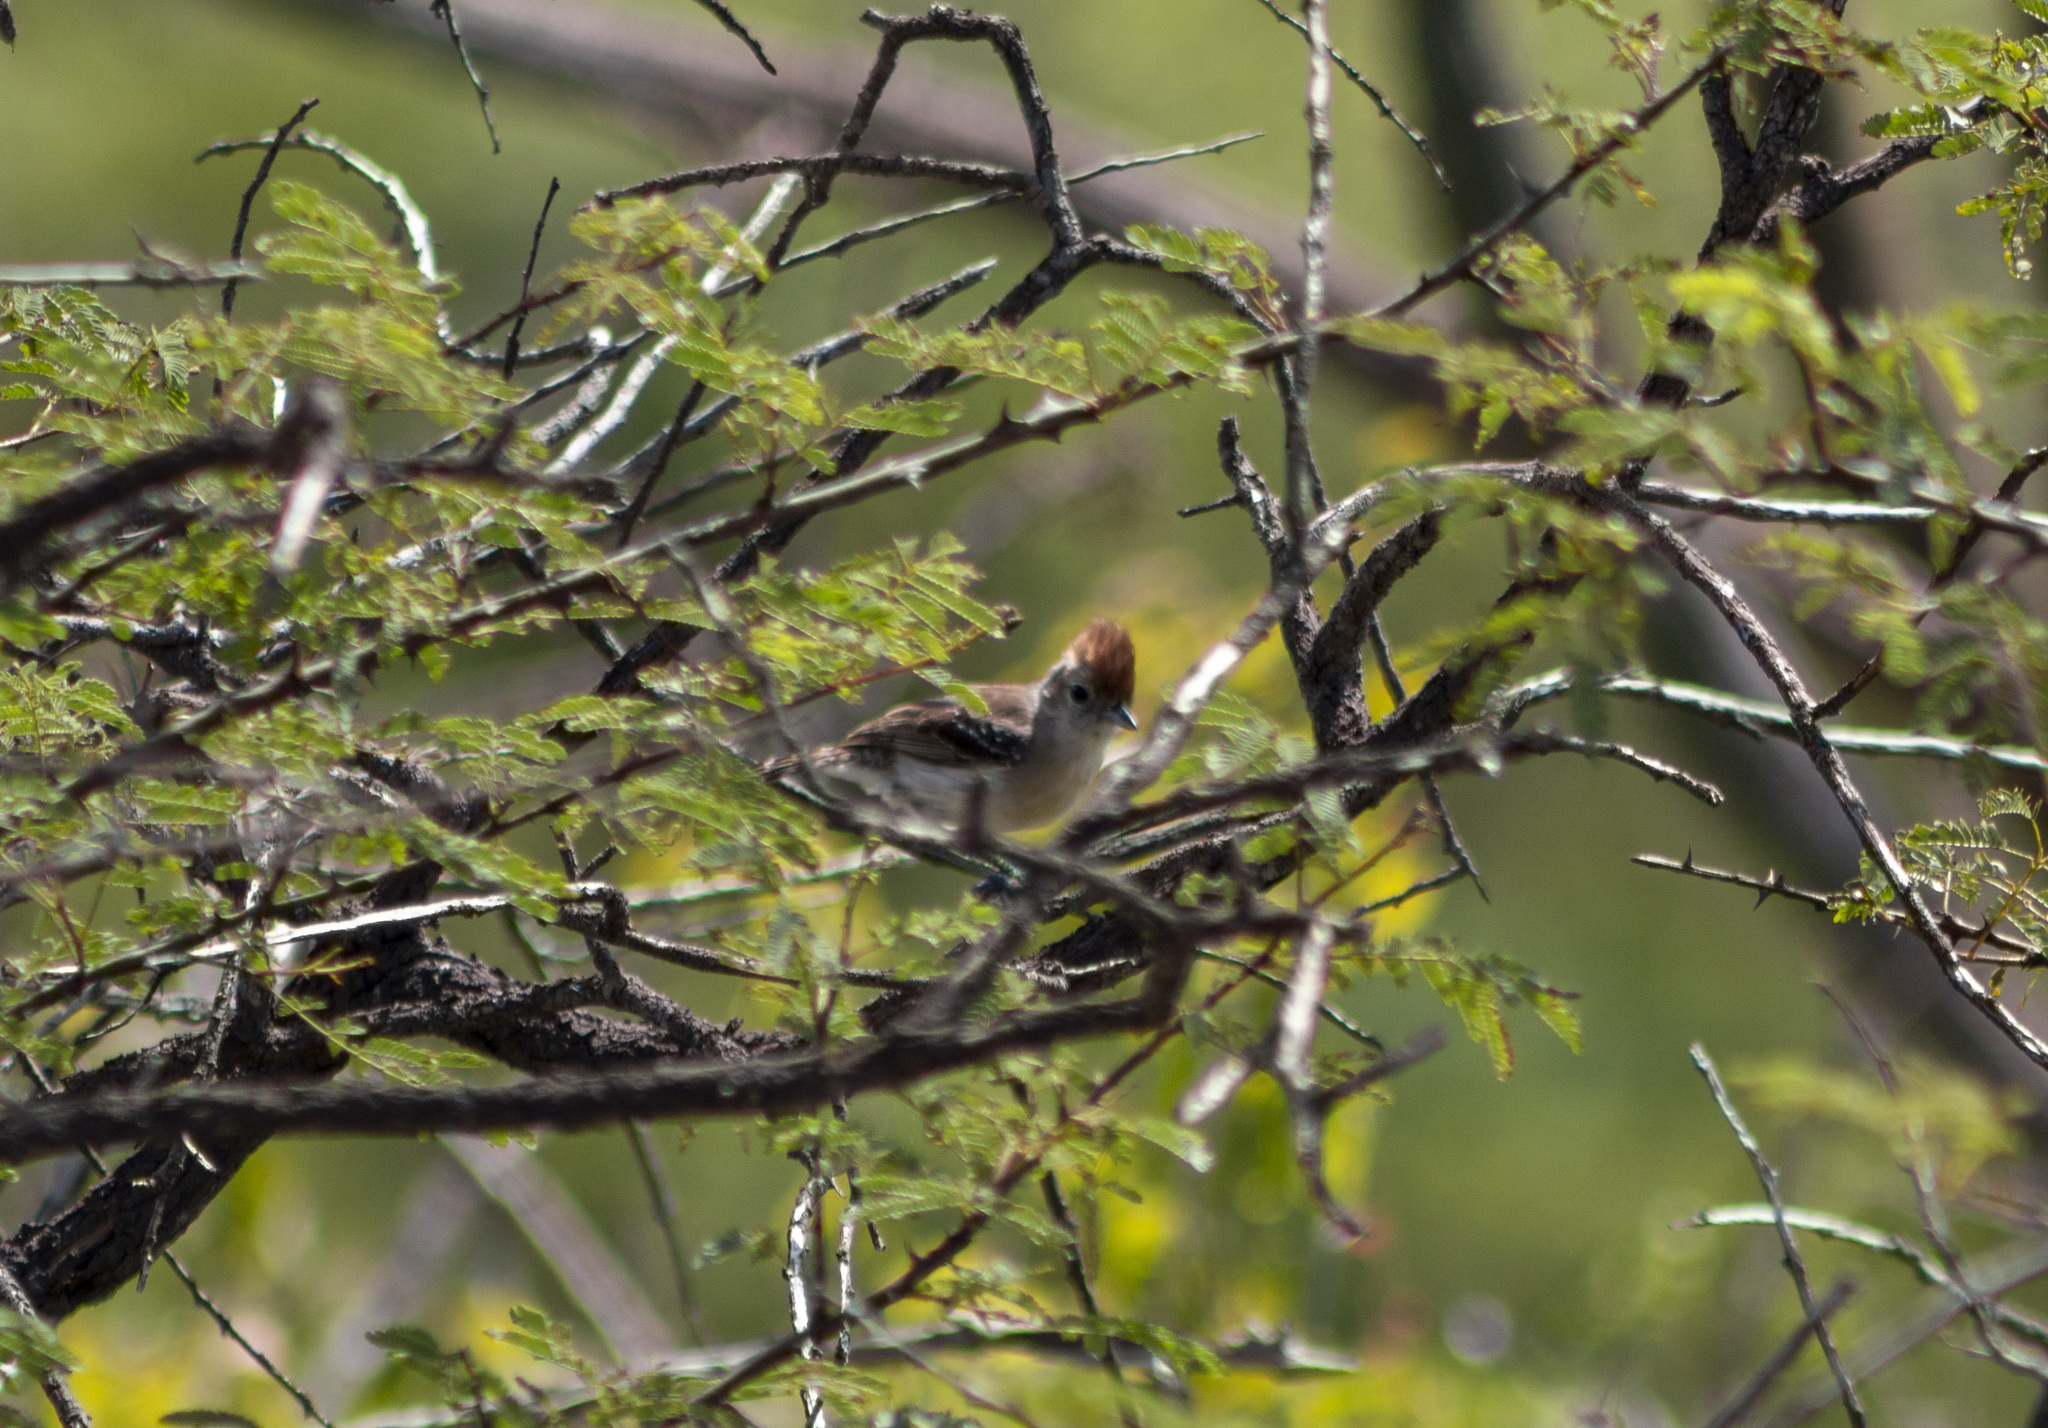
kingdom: Animalia
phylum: Chordata
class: Aves
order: Passeriformes
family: Thamnophilidae
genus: Sakesphorus
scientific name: Sakesphorus cristatus
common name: Silvery-cheeked antshrike
